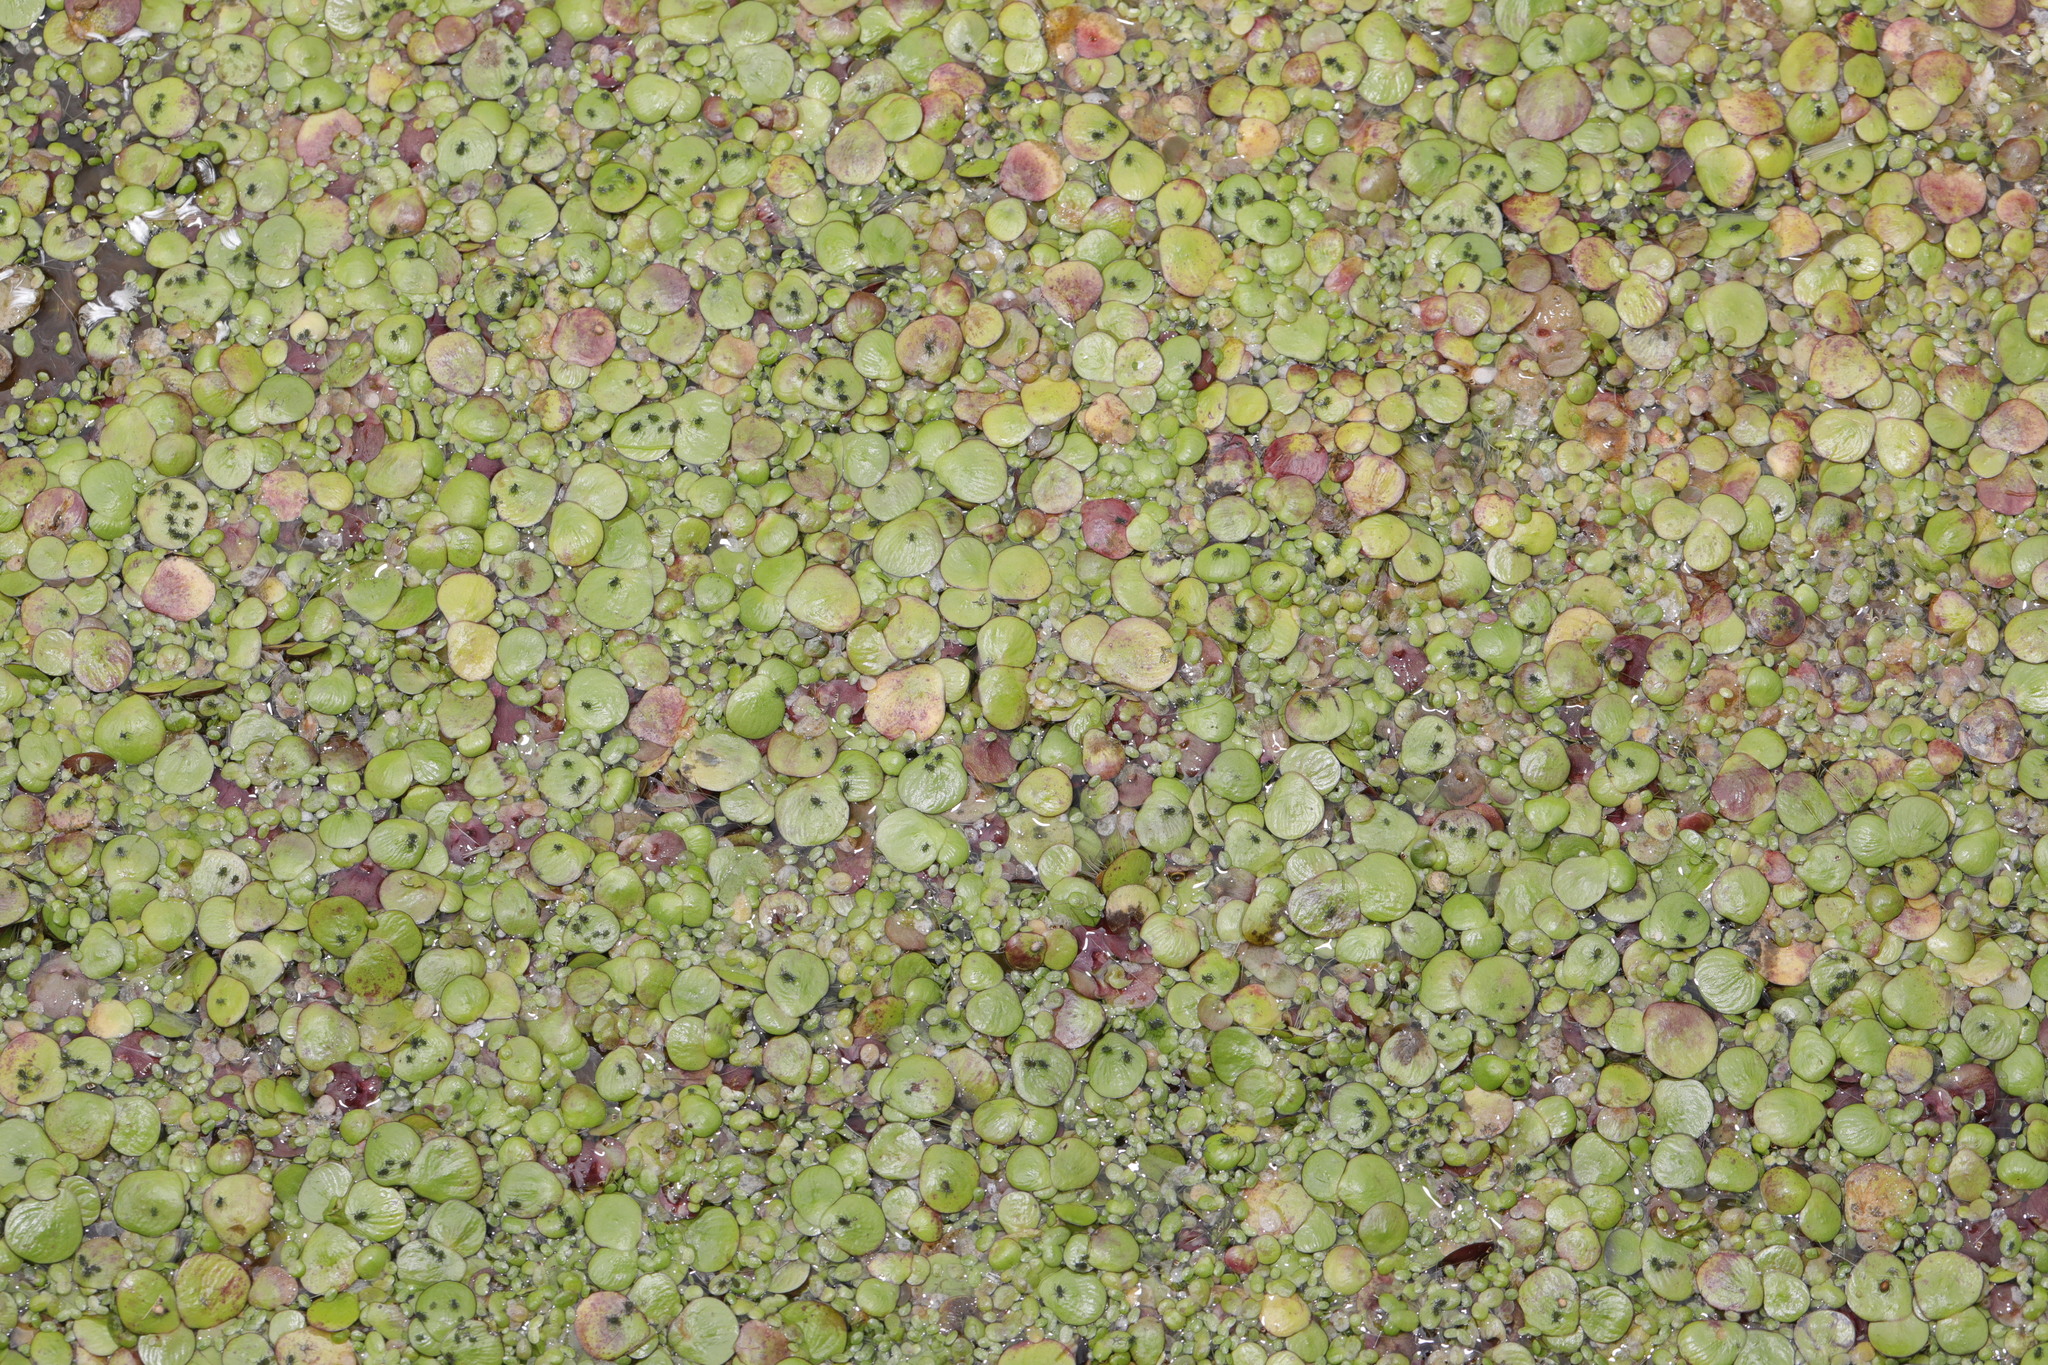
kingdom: Plantae
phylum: Tracheophyta
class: Liliopsida
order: Alismatales
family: Araceae
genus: Spirodela
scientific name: Spirodela polyrhiza
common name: Great duckweed
